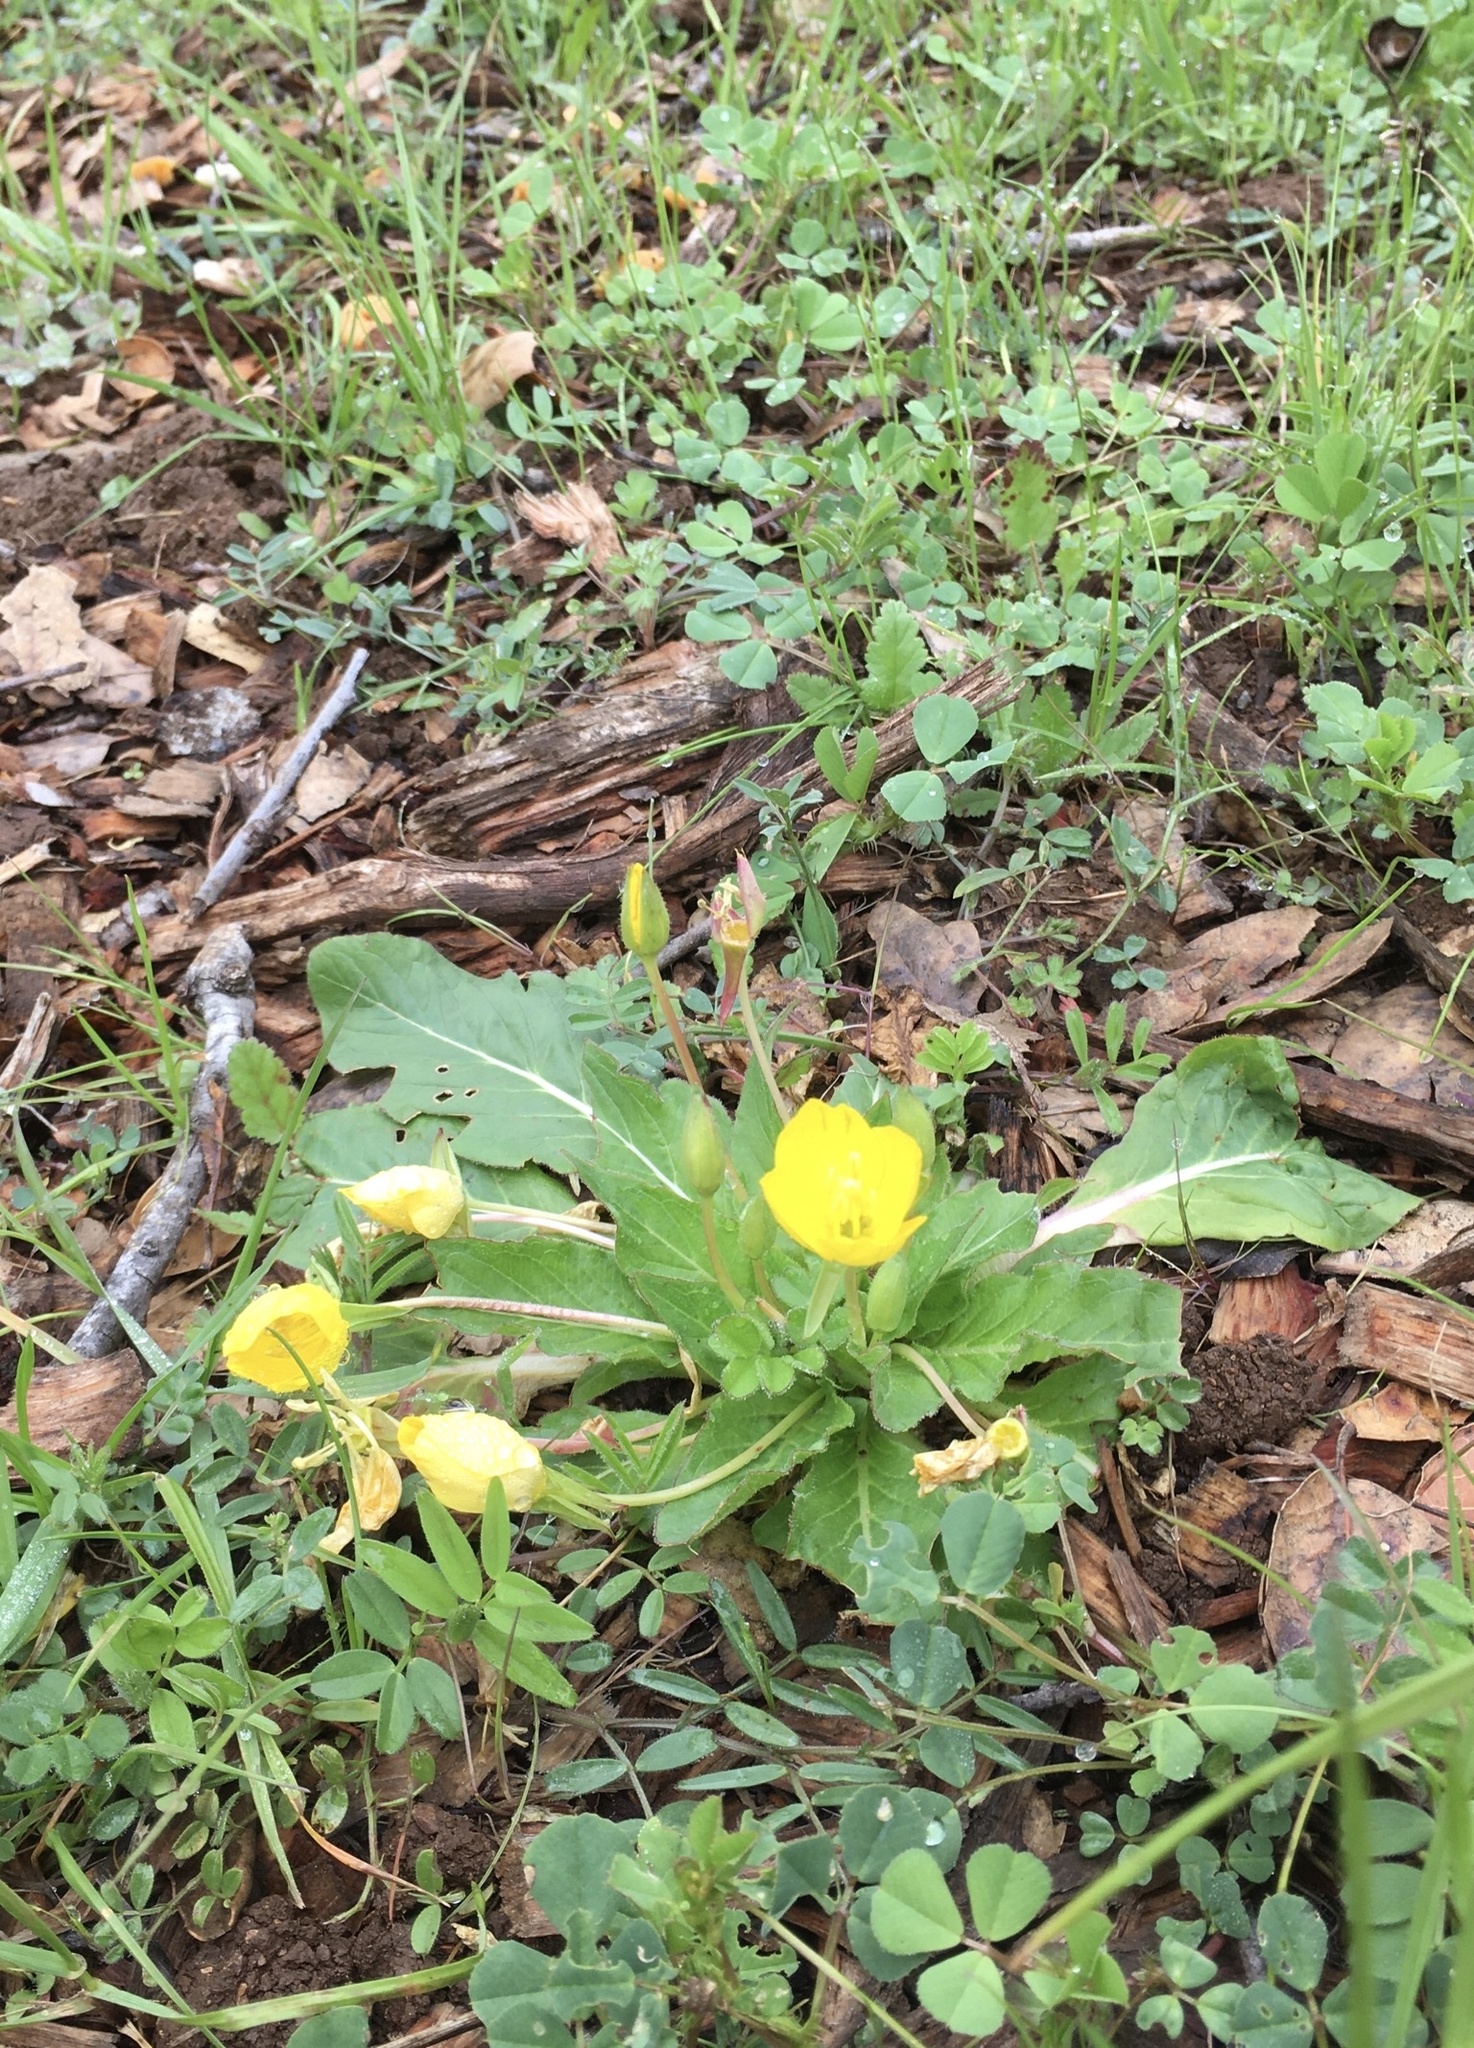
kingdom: Plantae
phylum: Tracheophyta
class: Magnoliopsida
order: Myrtales
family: Onagraceae
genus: Taraxia
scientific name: Taraxia ovata
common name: Goldeneggs
